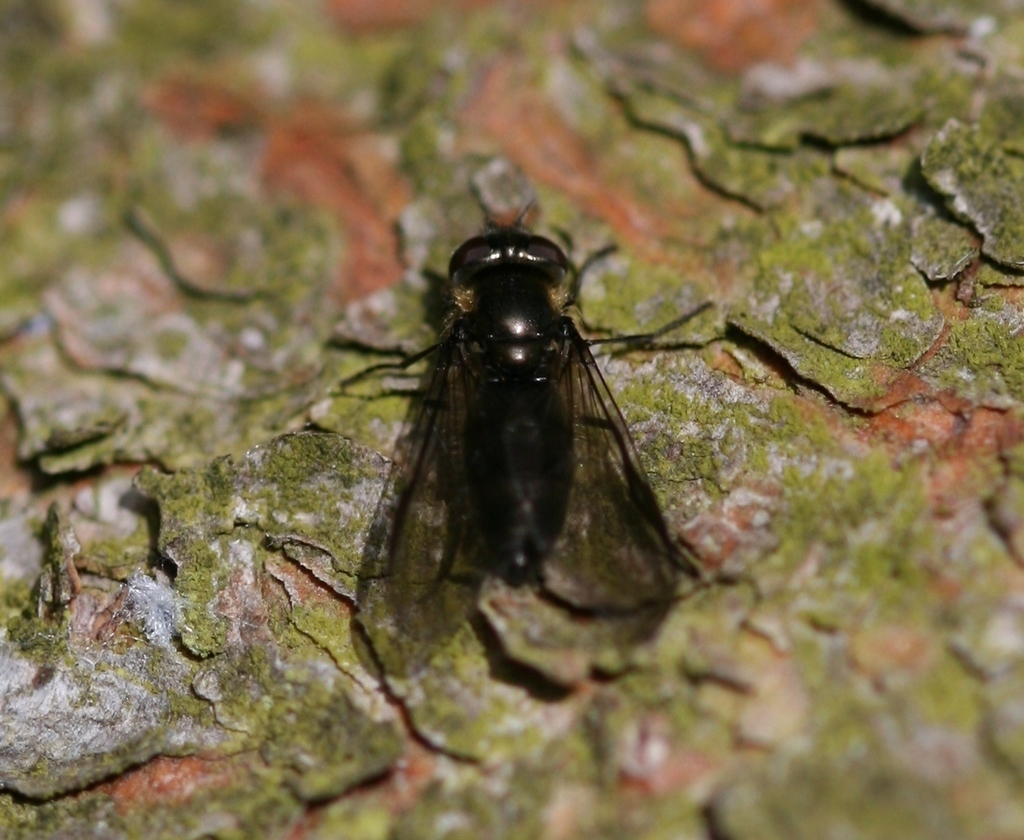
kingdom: Animalia
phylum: Arthropoda
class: Insecta
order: Diptera
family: Syrphidae
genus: Melangyna
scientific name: Melangyna quadrimaculata
